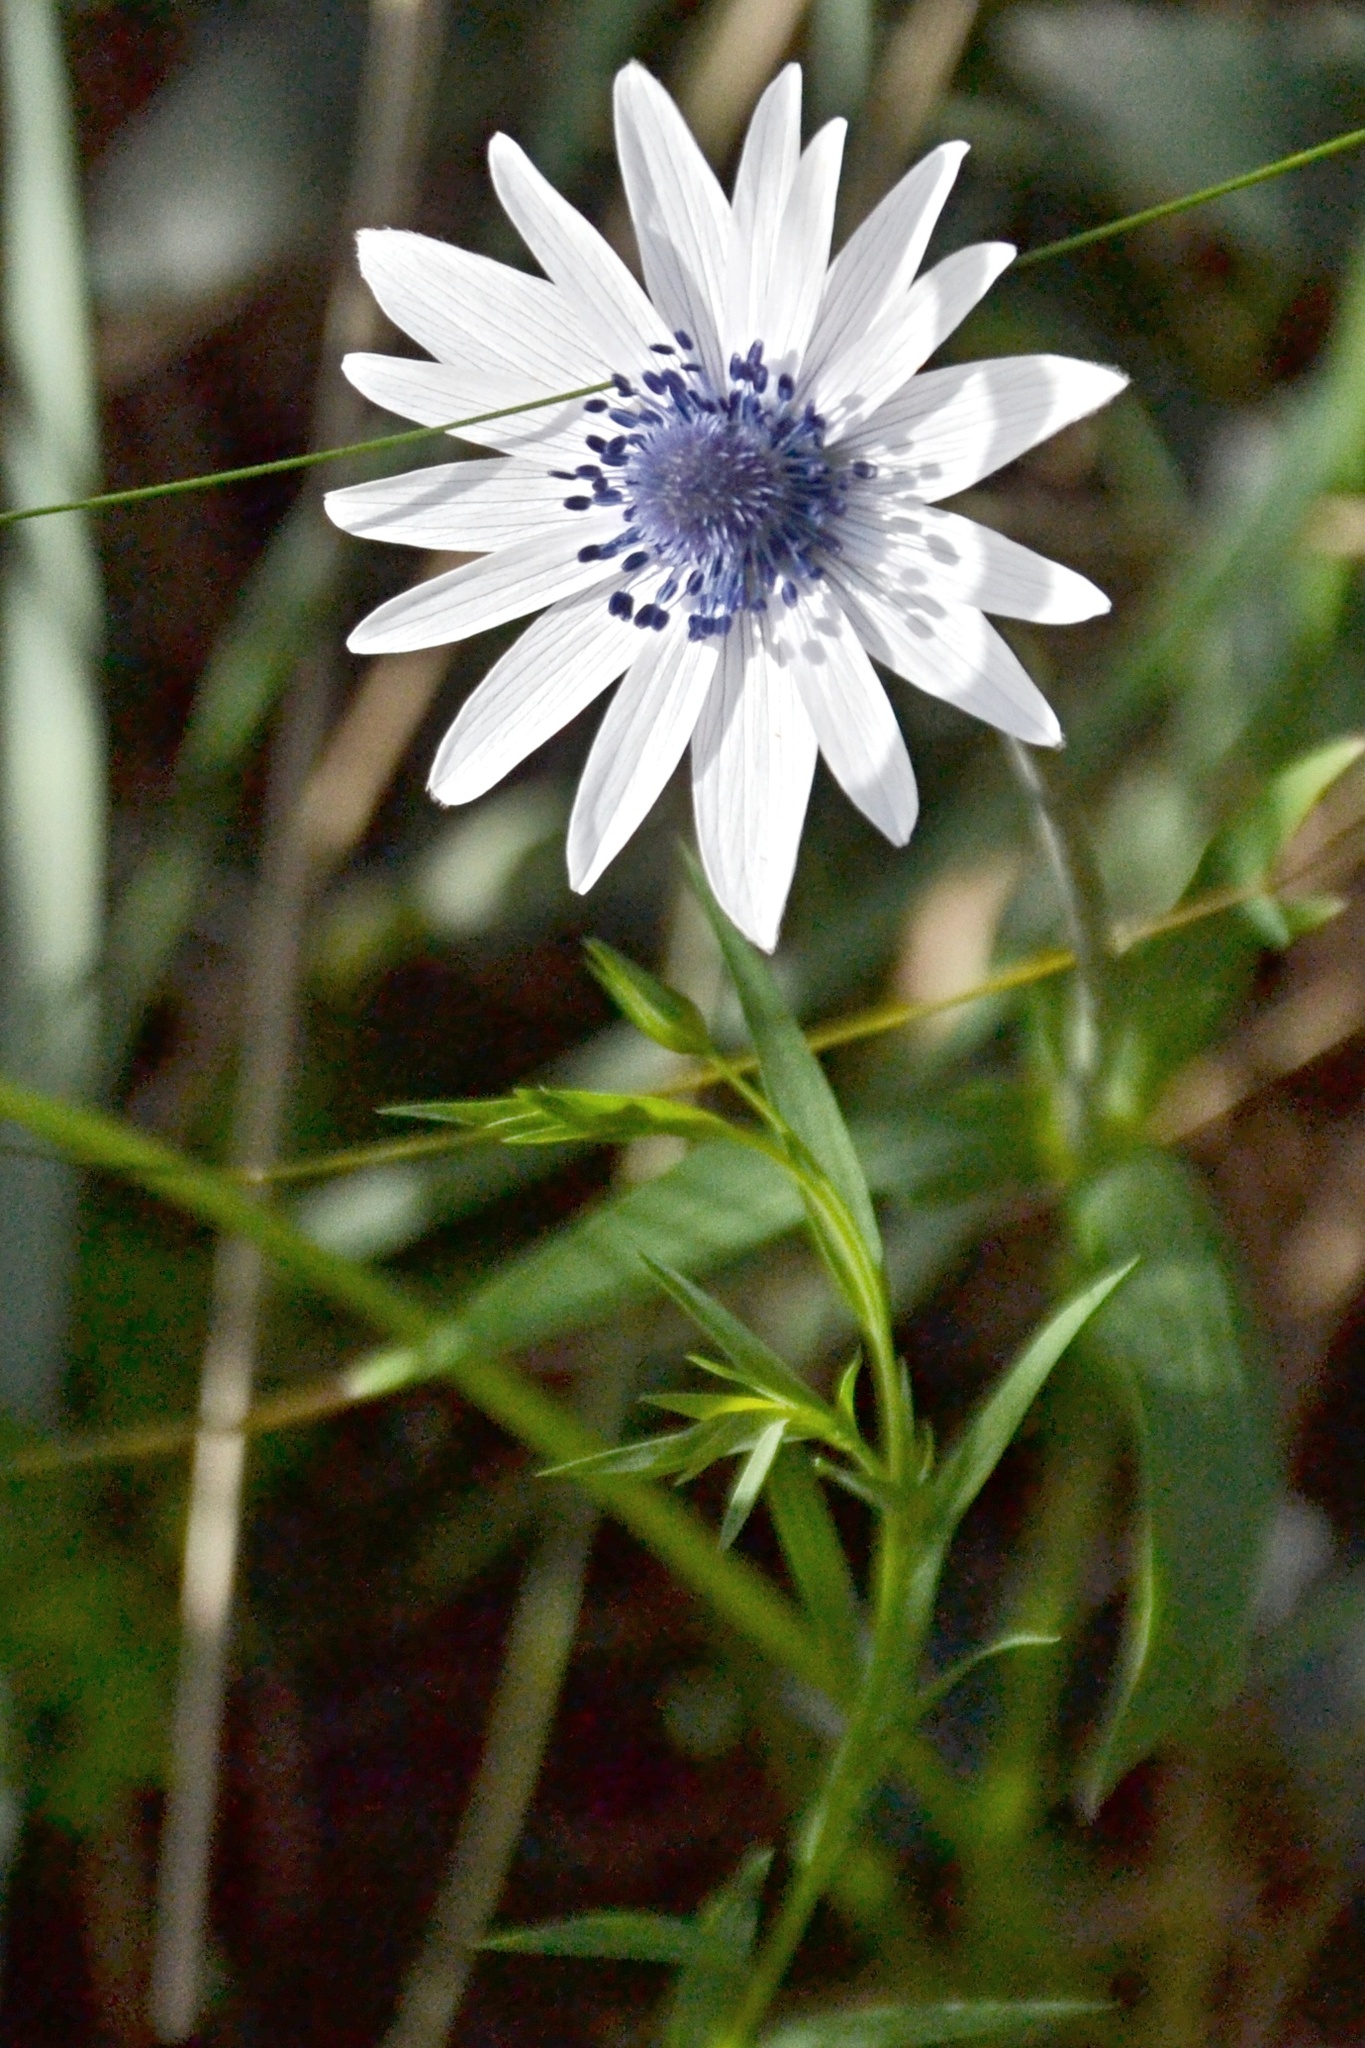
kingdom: Plantae
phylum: Tracheophyta
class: Magnoliopsida
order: Ranunculales
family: Ranunculaceae
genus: Anemone
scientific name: Anemone hortensis
